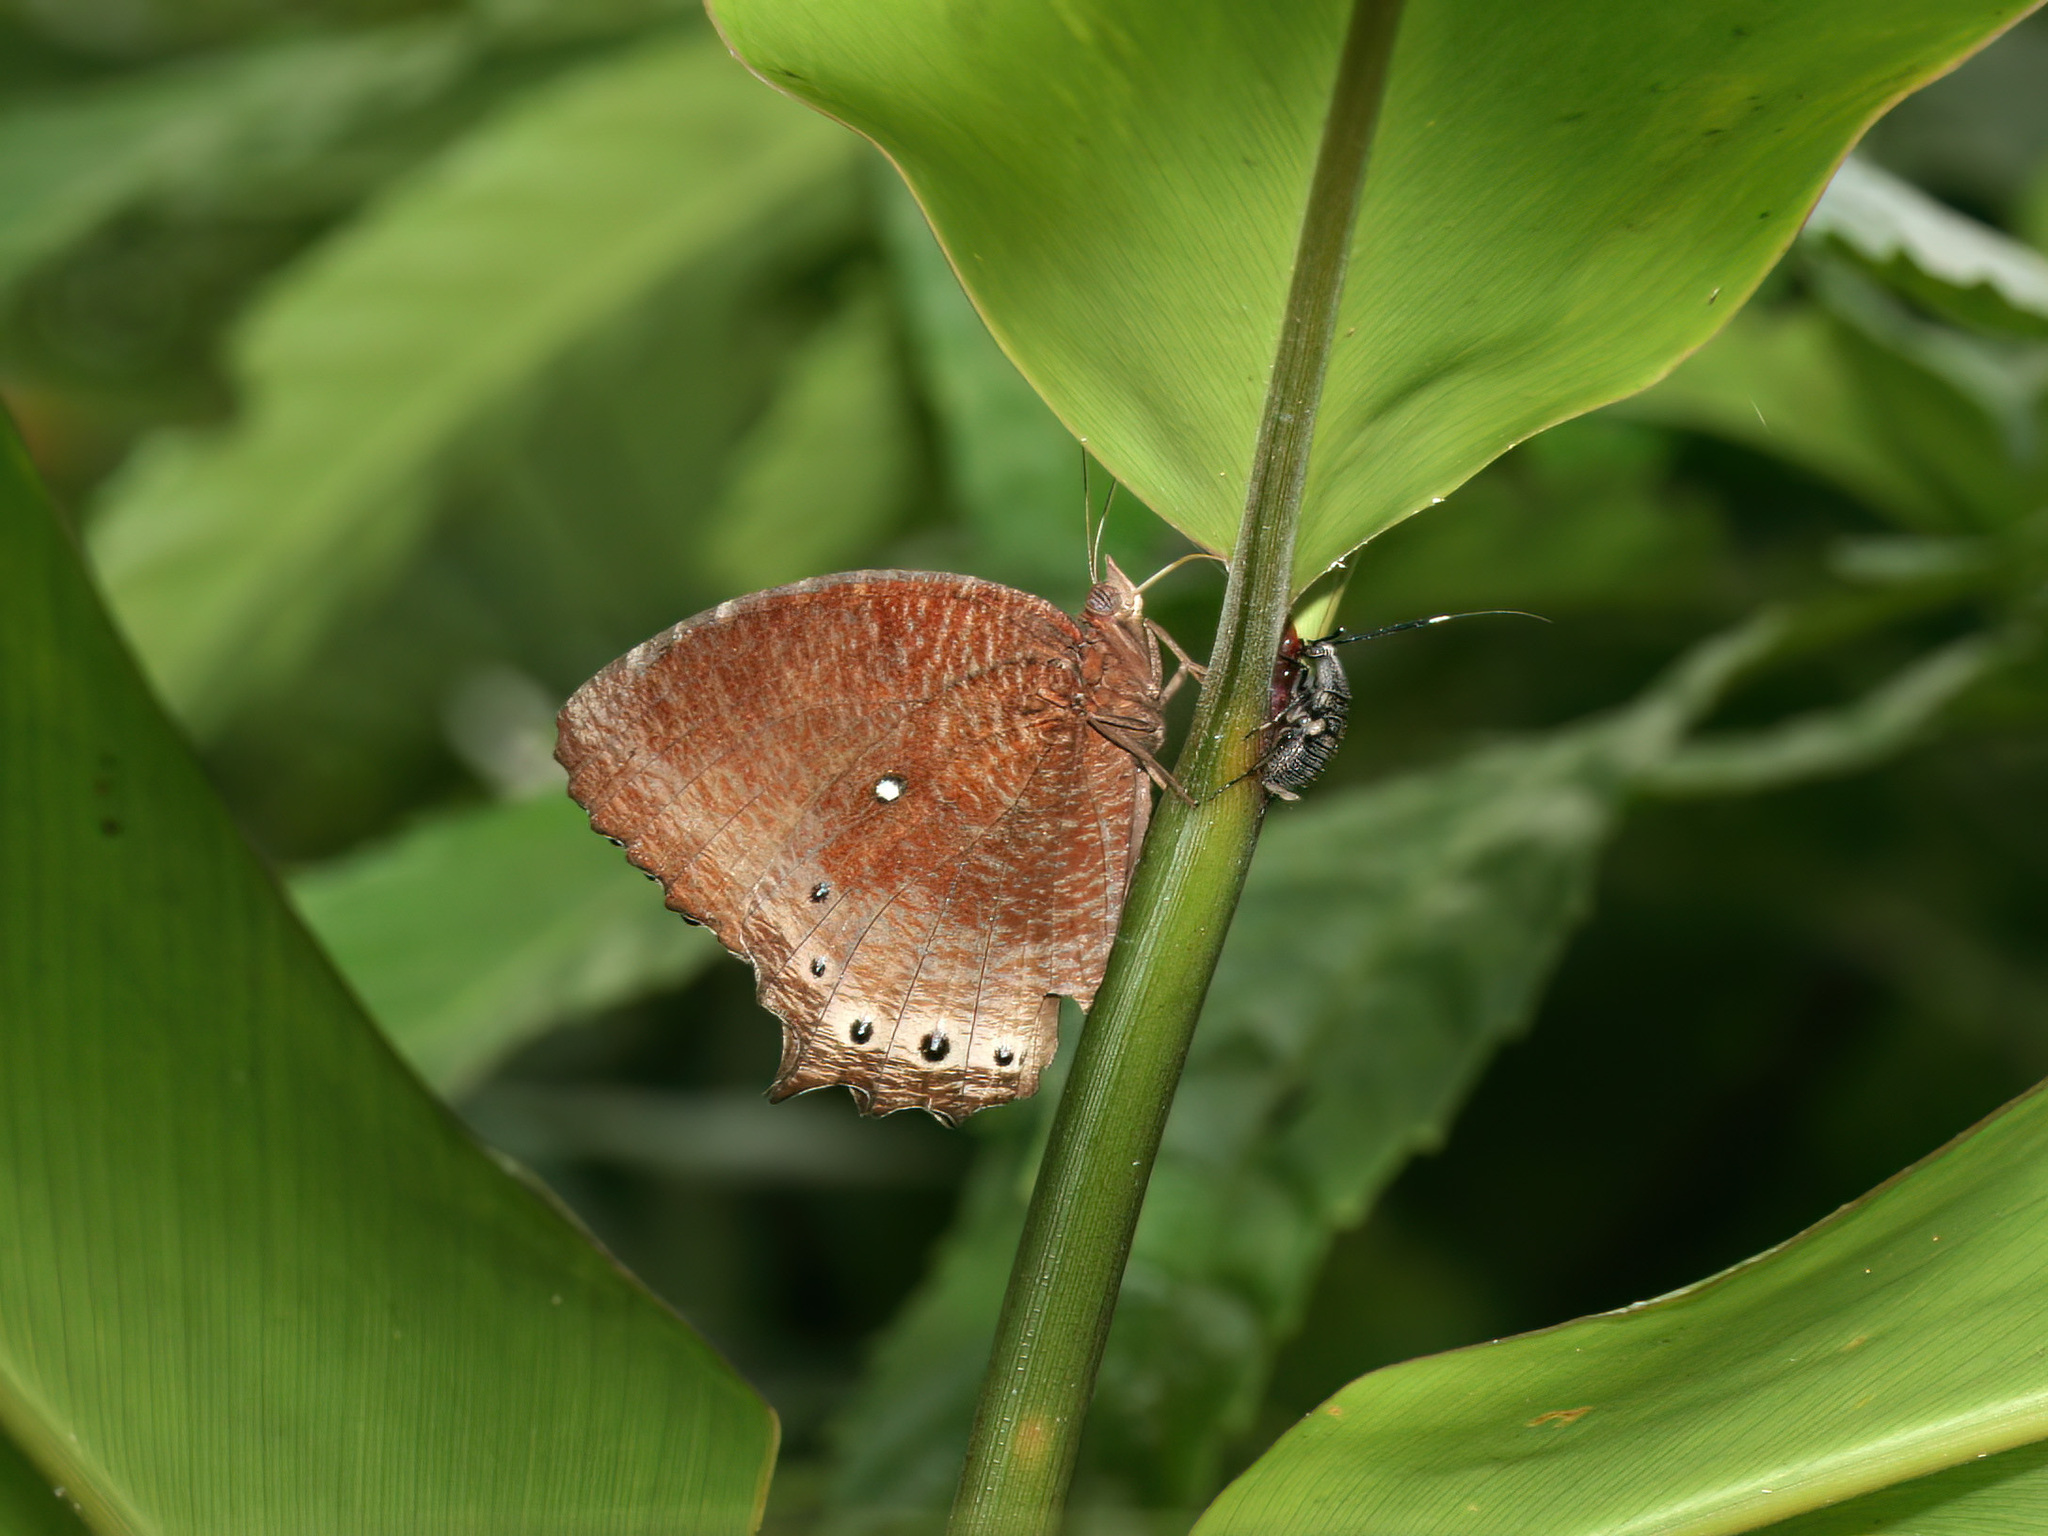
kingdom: Animalia
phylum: Arthropoda
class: Insecta
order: Lepidoptera
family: Nymphalidae
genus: Elymnias
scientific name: Elymnias panthera
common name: Tawny palmfly
